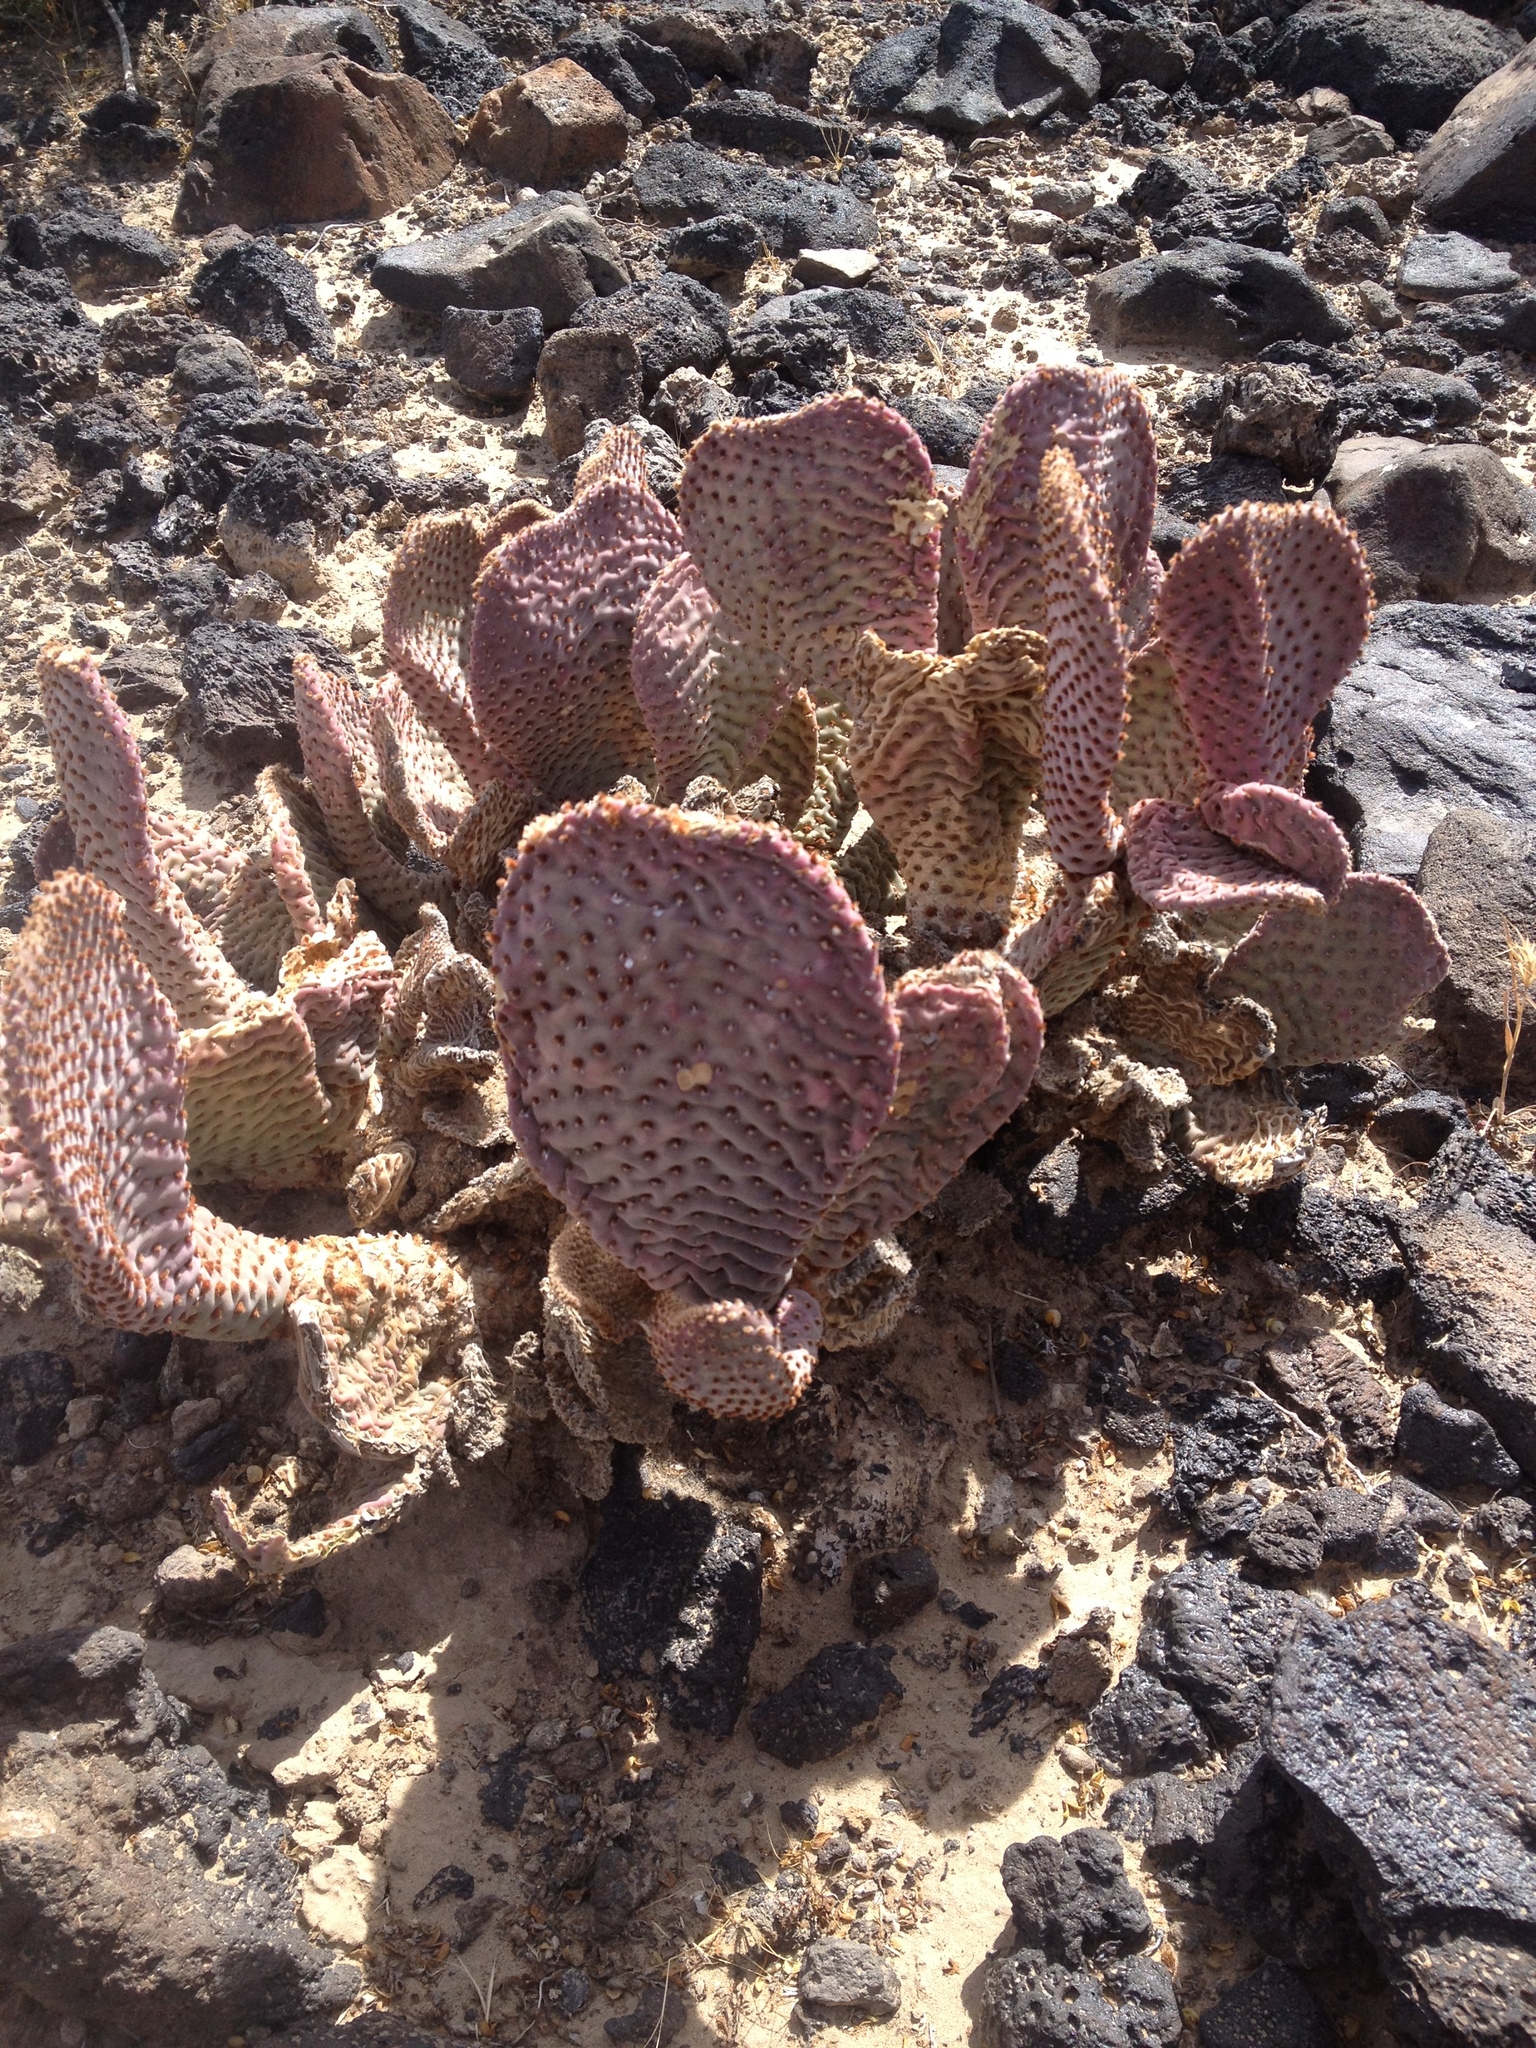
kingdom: Plantae
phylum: Tracheophyta
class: Magnoliopsida
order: Caryophyllales
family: Cactaceae
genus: Opuntia
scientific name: Opuntia basilaris
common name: Beavertail prickly-pear
